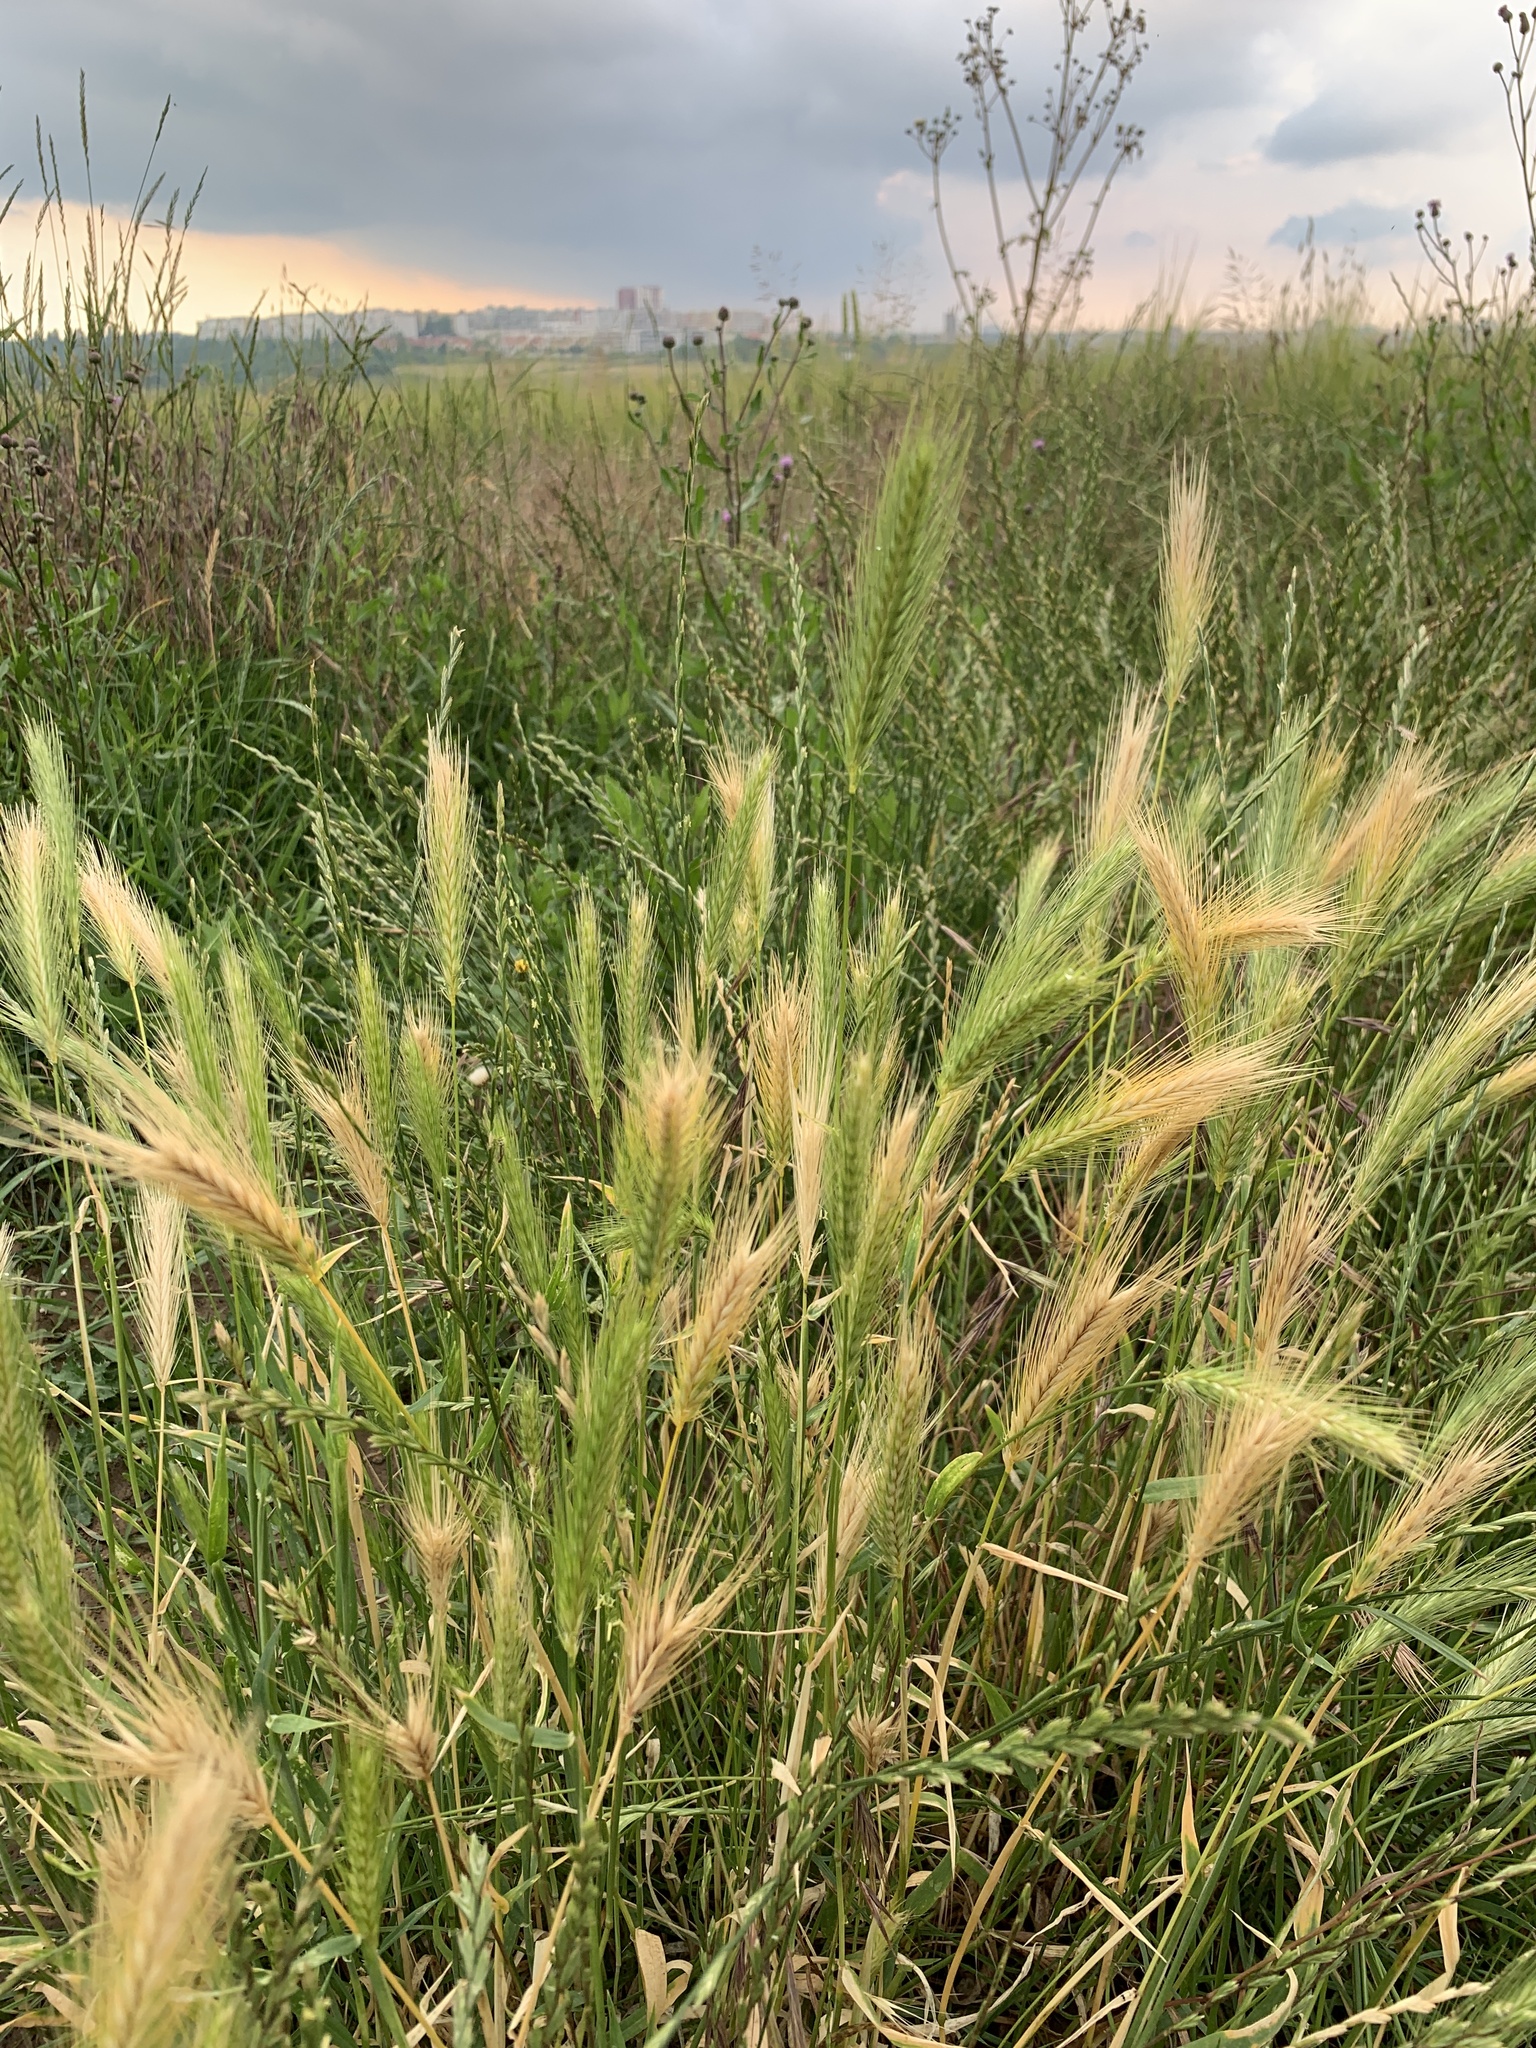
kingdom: Plantae
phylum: Tracheophyta
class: Liliopsida
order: Poales
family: Poaceae
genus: Hordeum
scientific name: Hordeum murinum
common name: Wall barley
